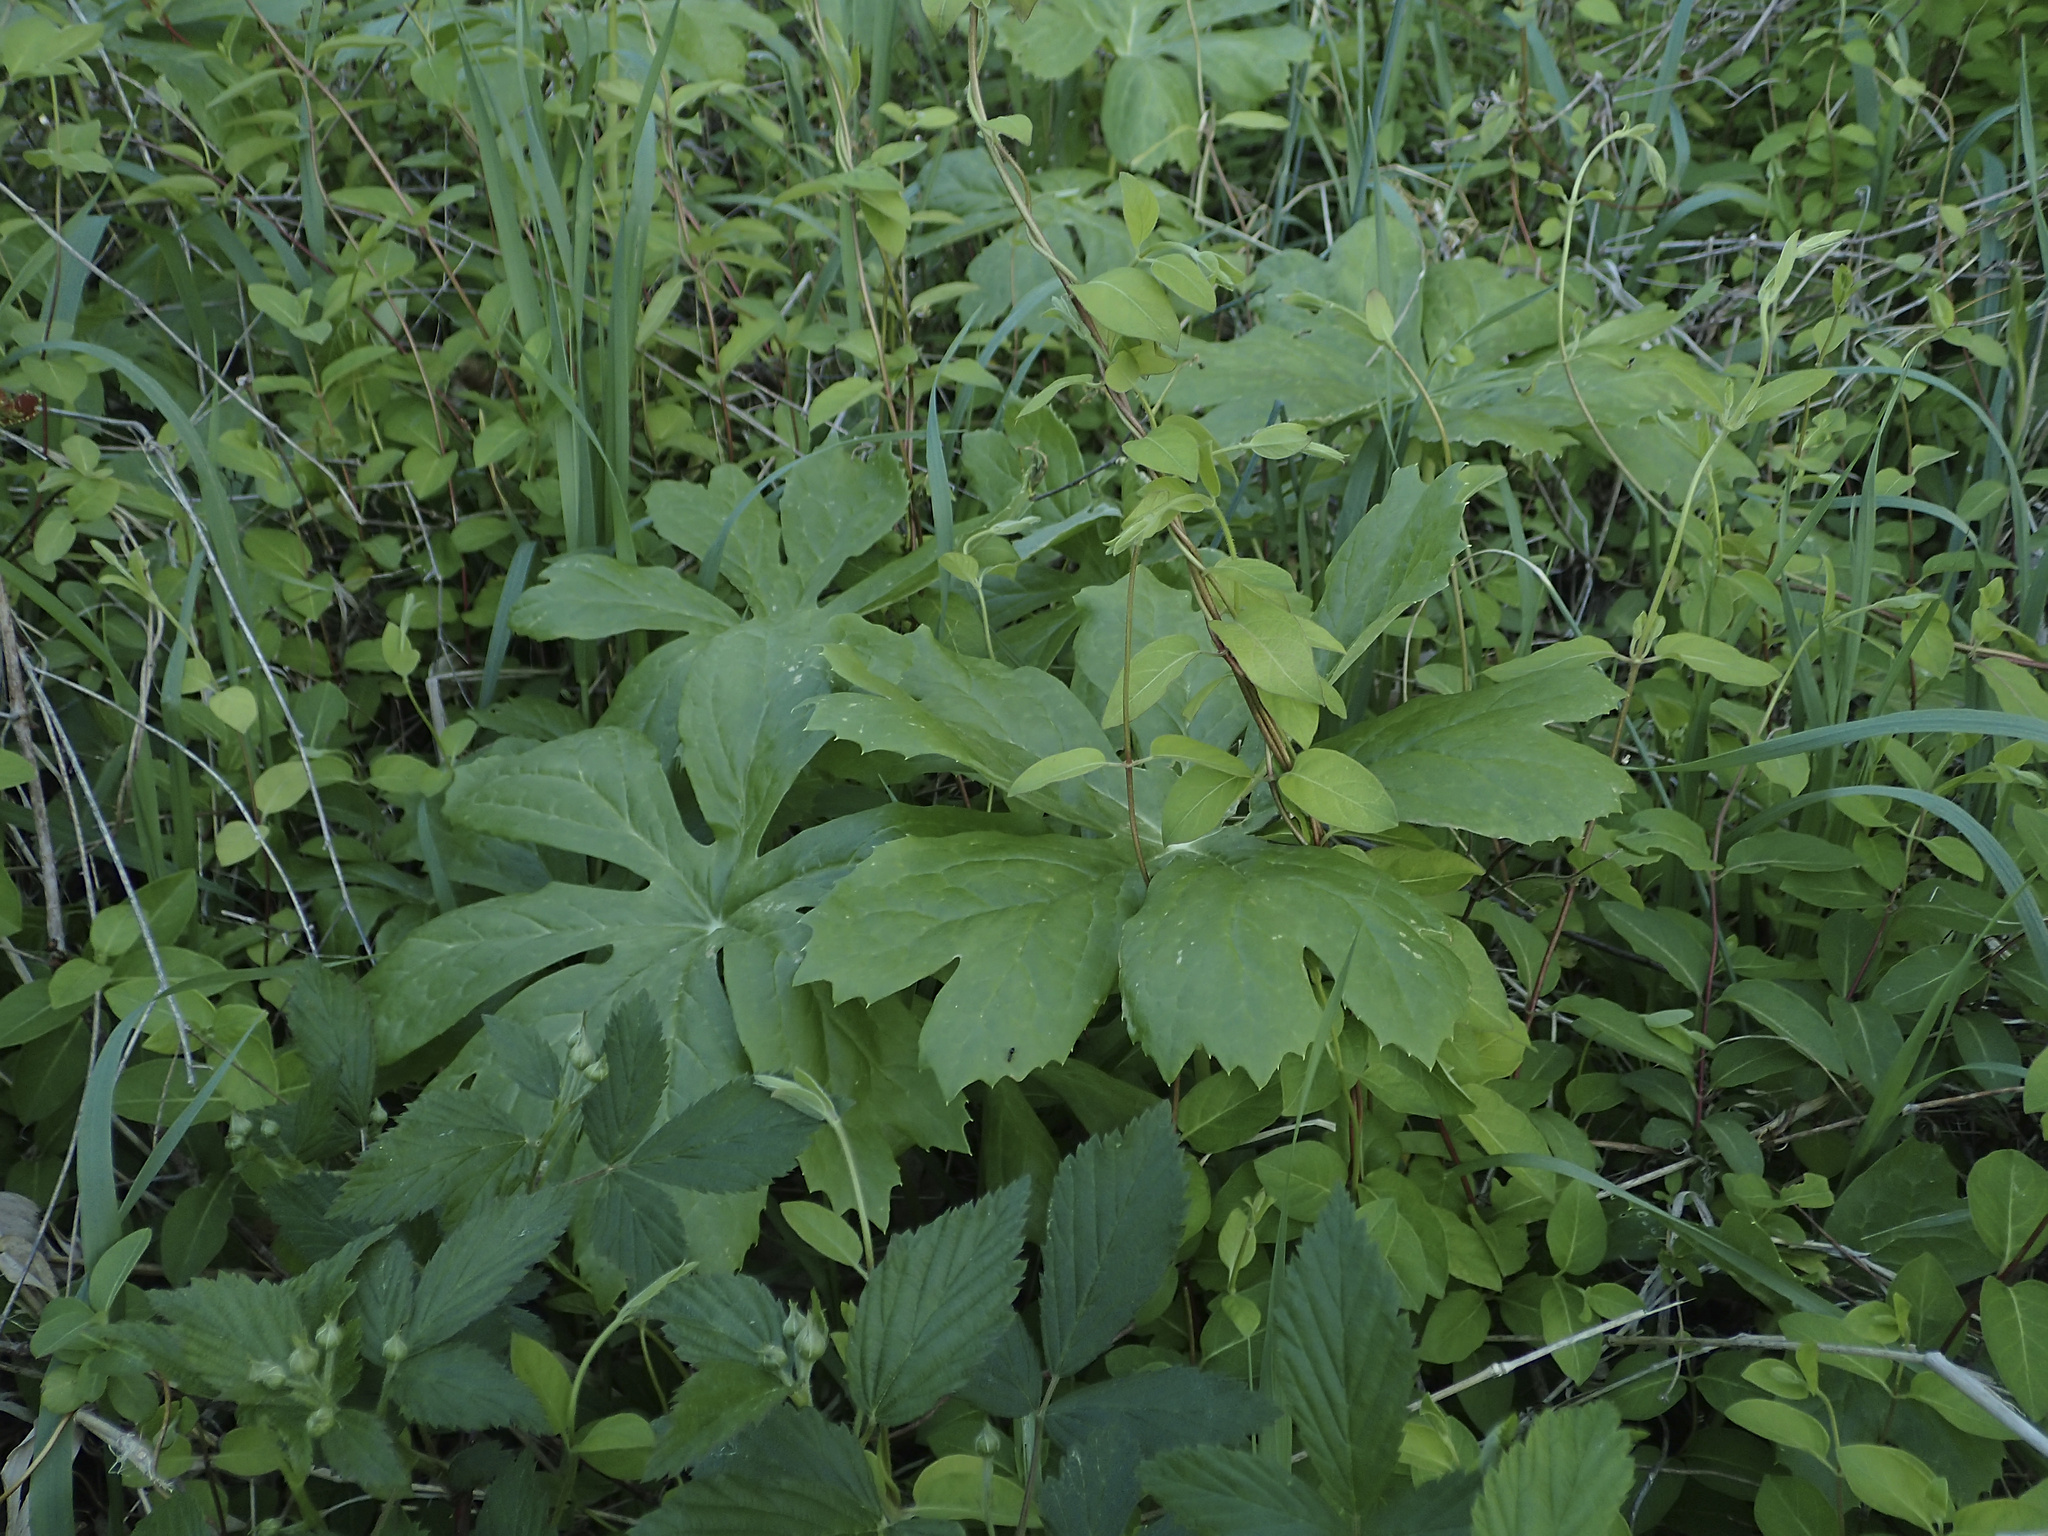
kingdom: Plantae
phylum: Tracheophyta
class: Magnoliopsida
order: Ranunculales
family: Berberidaceae
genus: Podophyllum
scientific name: Podophyllum peltatum
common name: Wild mandrake
